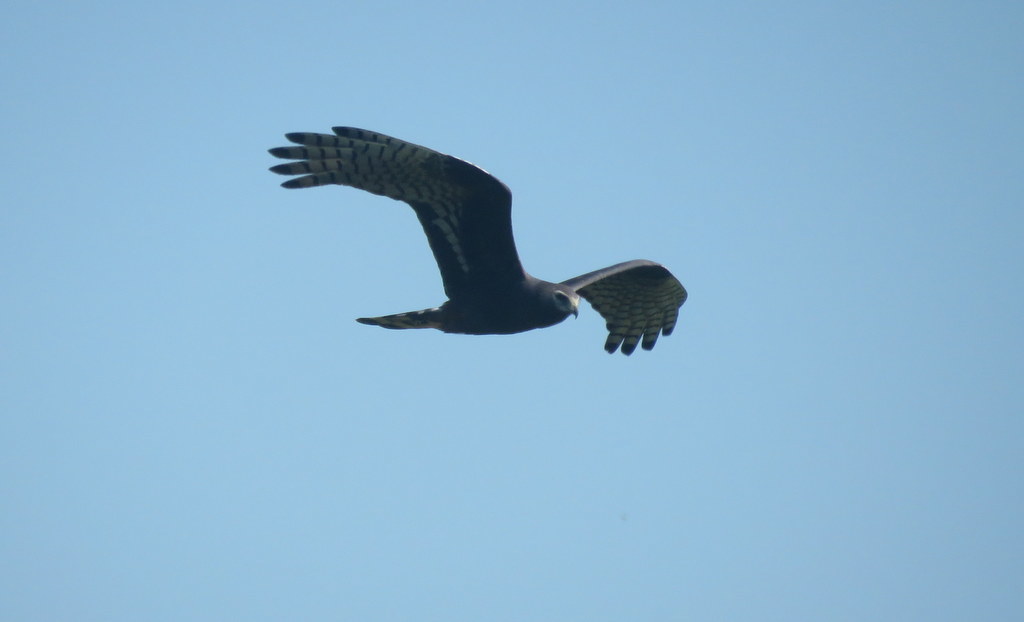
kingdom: Animalia
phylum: Chordata
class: Aves
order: Accipitriformes
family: Accipitridae
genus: Circus
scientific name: Circus buffoni
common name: Long-winged harrier
